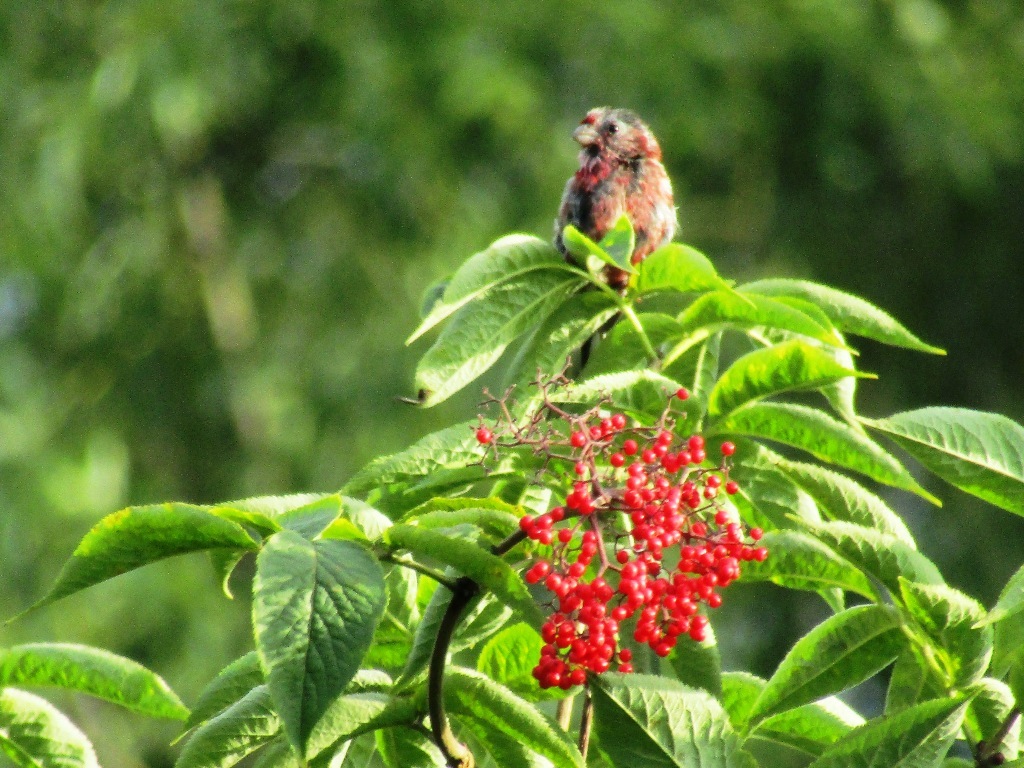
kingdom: Animalia
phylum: Chordata
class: Aves
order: Passeriformes
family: Fringillidae
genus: Carpodacus
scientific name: Carpodacus sibiricus
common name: Long-tailed rosefinch
